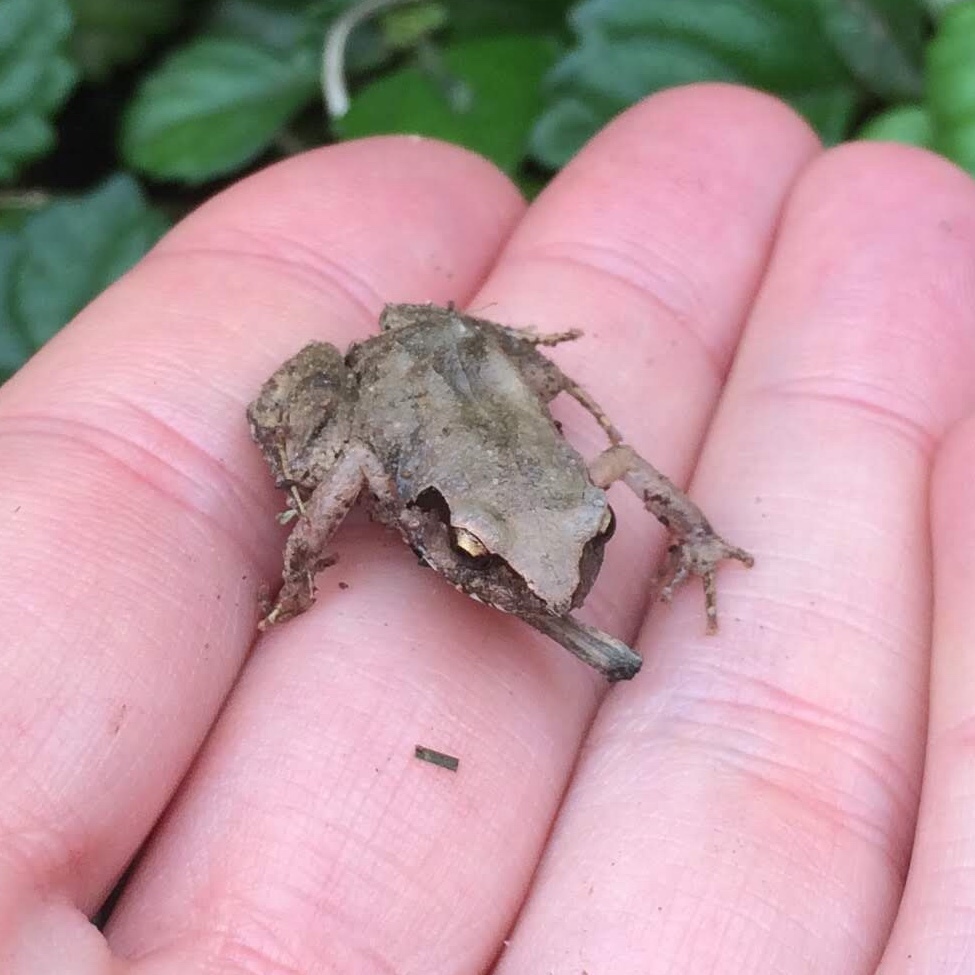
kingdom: Animalia
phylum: Chordata
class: Amphibia
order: Anura
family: Arthroleptidae
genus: Arthroleptis
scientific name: Arthroleptis wahlbergii
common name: Bush squeaker
